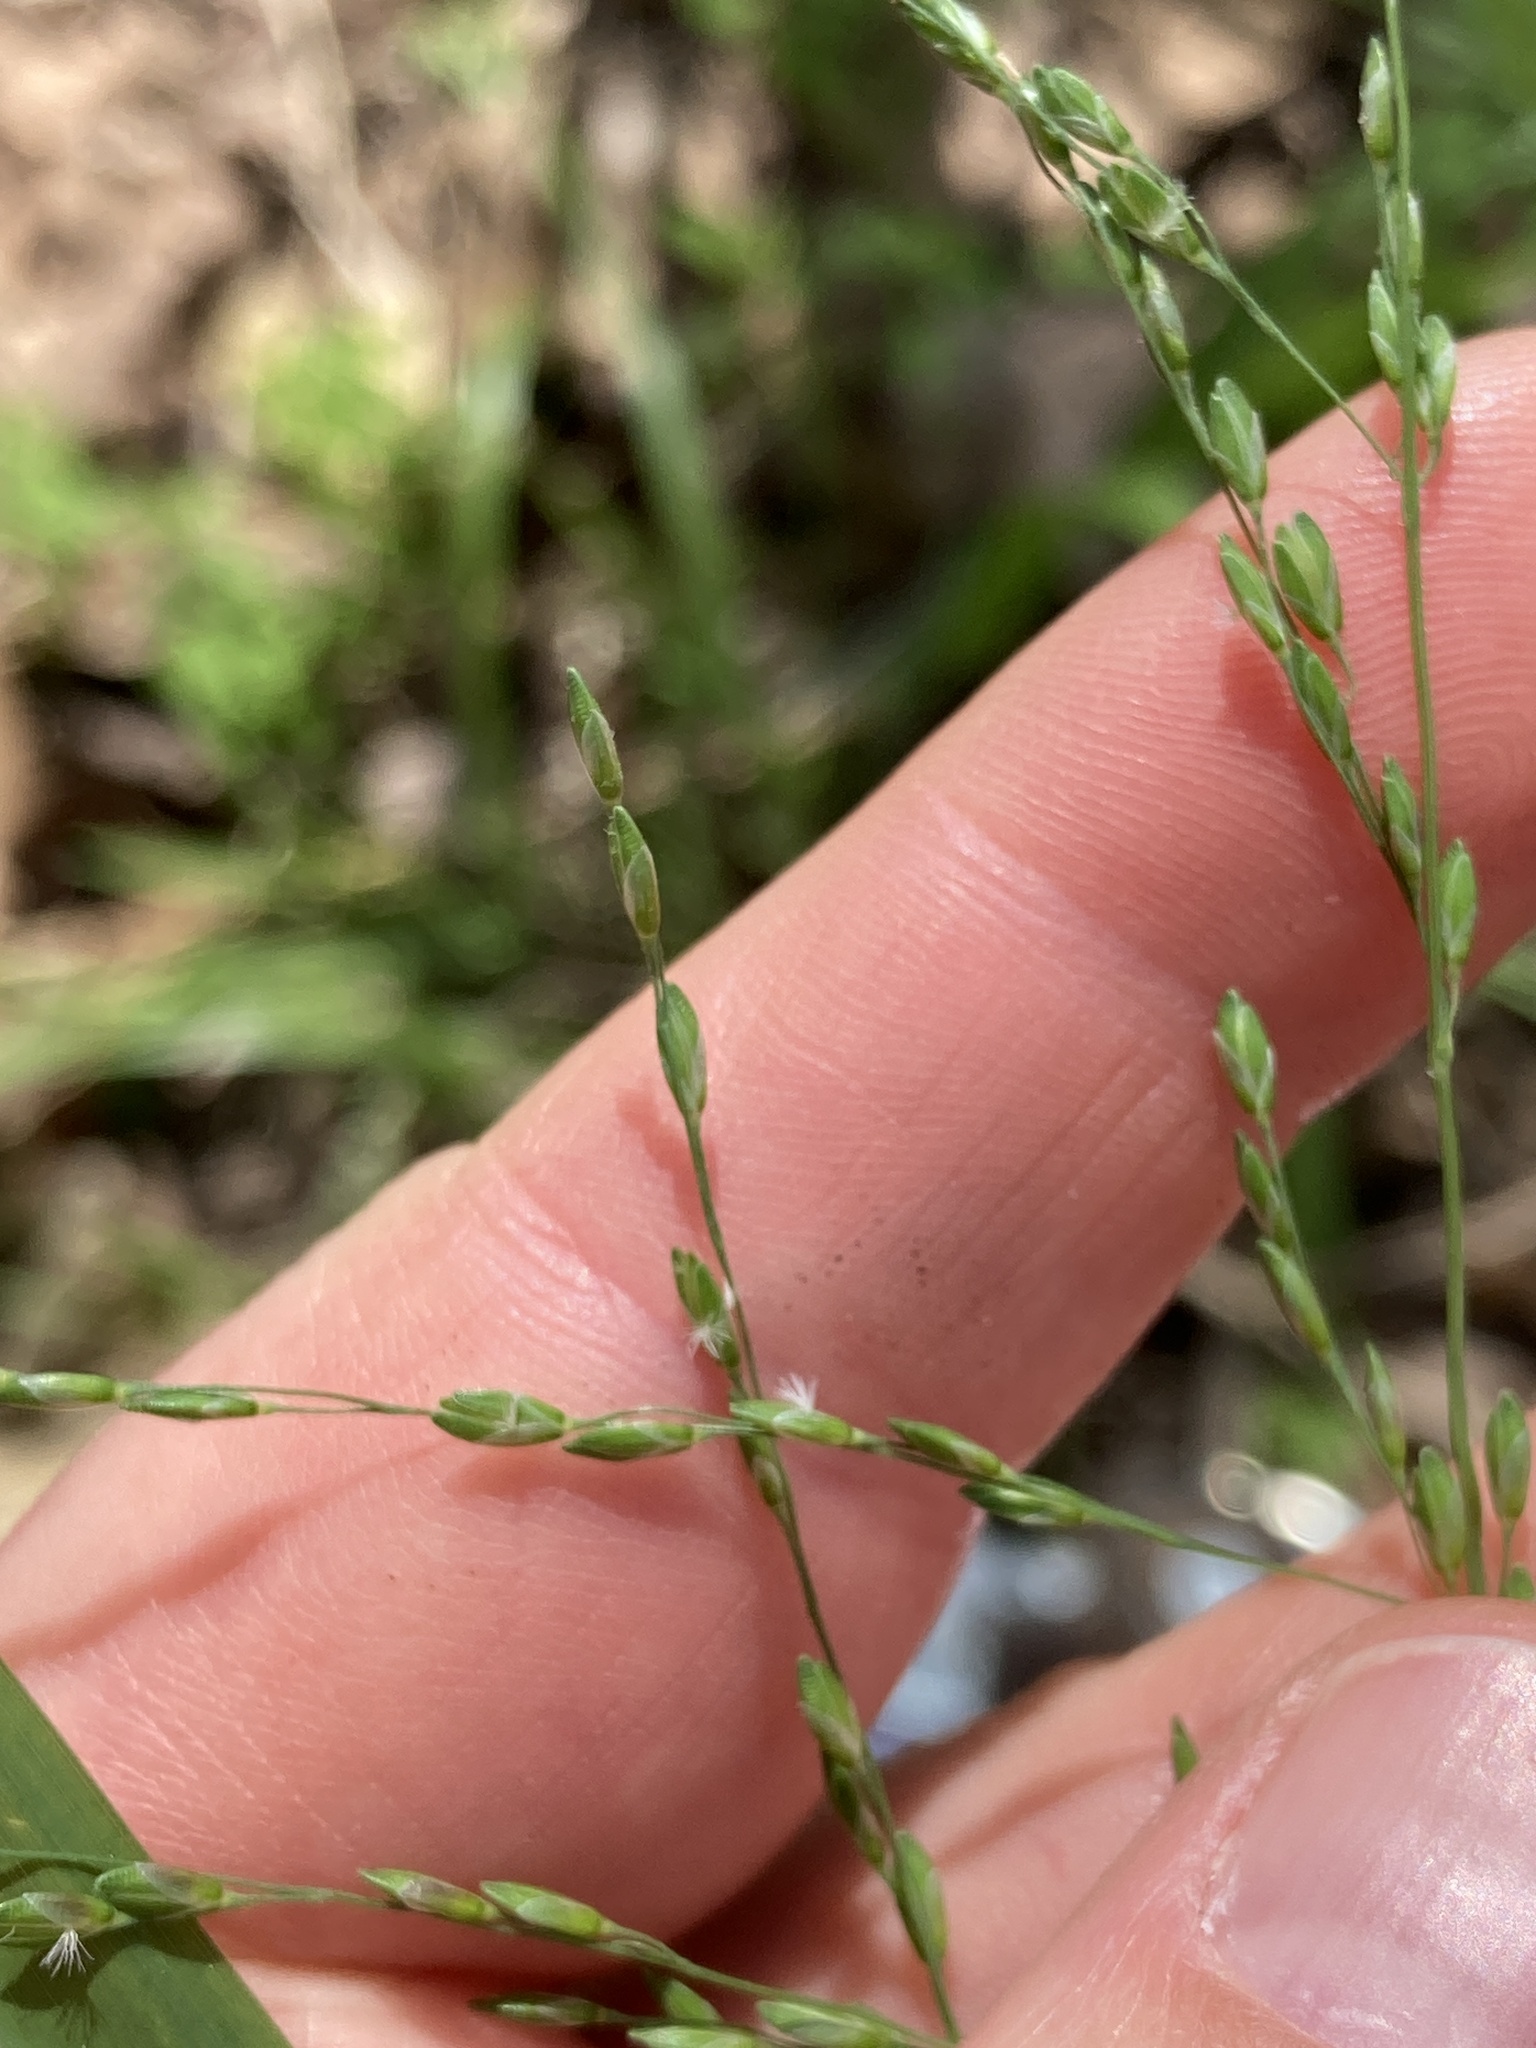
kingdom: Plantae
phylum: Tracheophyta
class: Liliopsida
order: Poales
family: Poaceae
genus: Ehrharta
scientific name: Ehrharta erecta
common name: Panic veldtgrass
